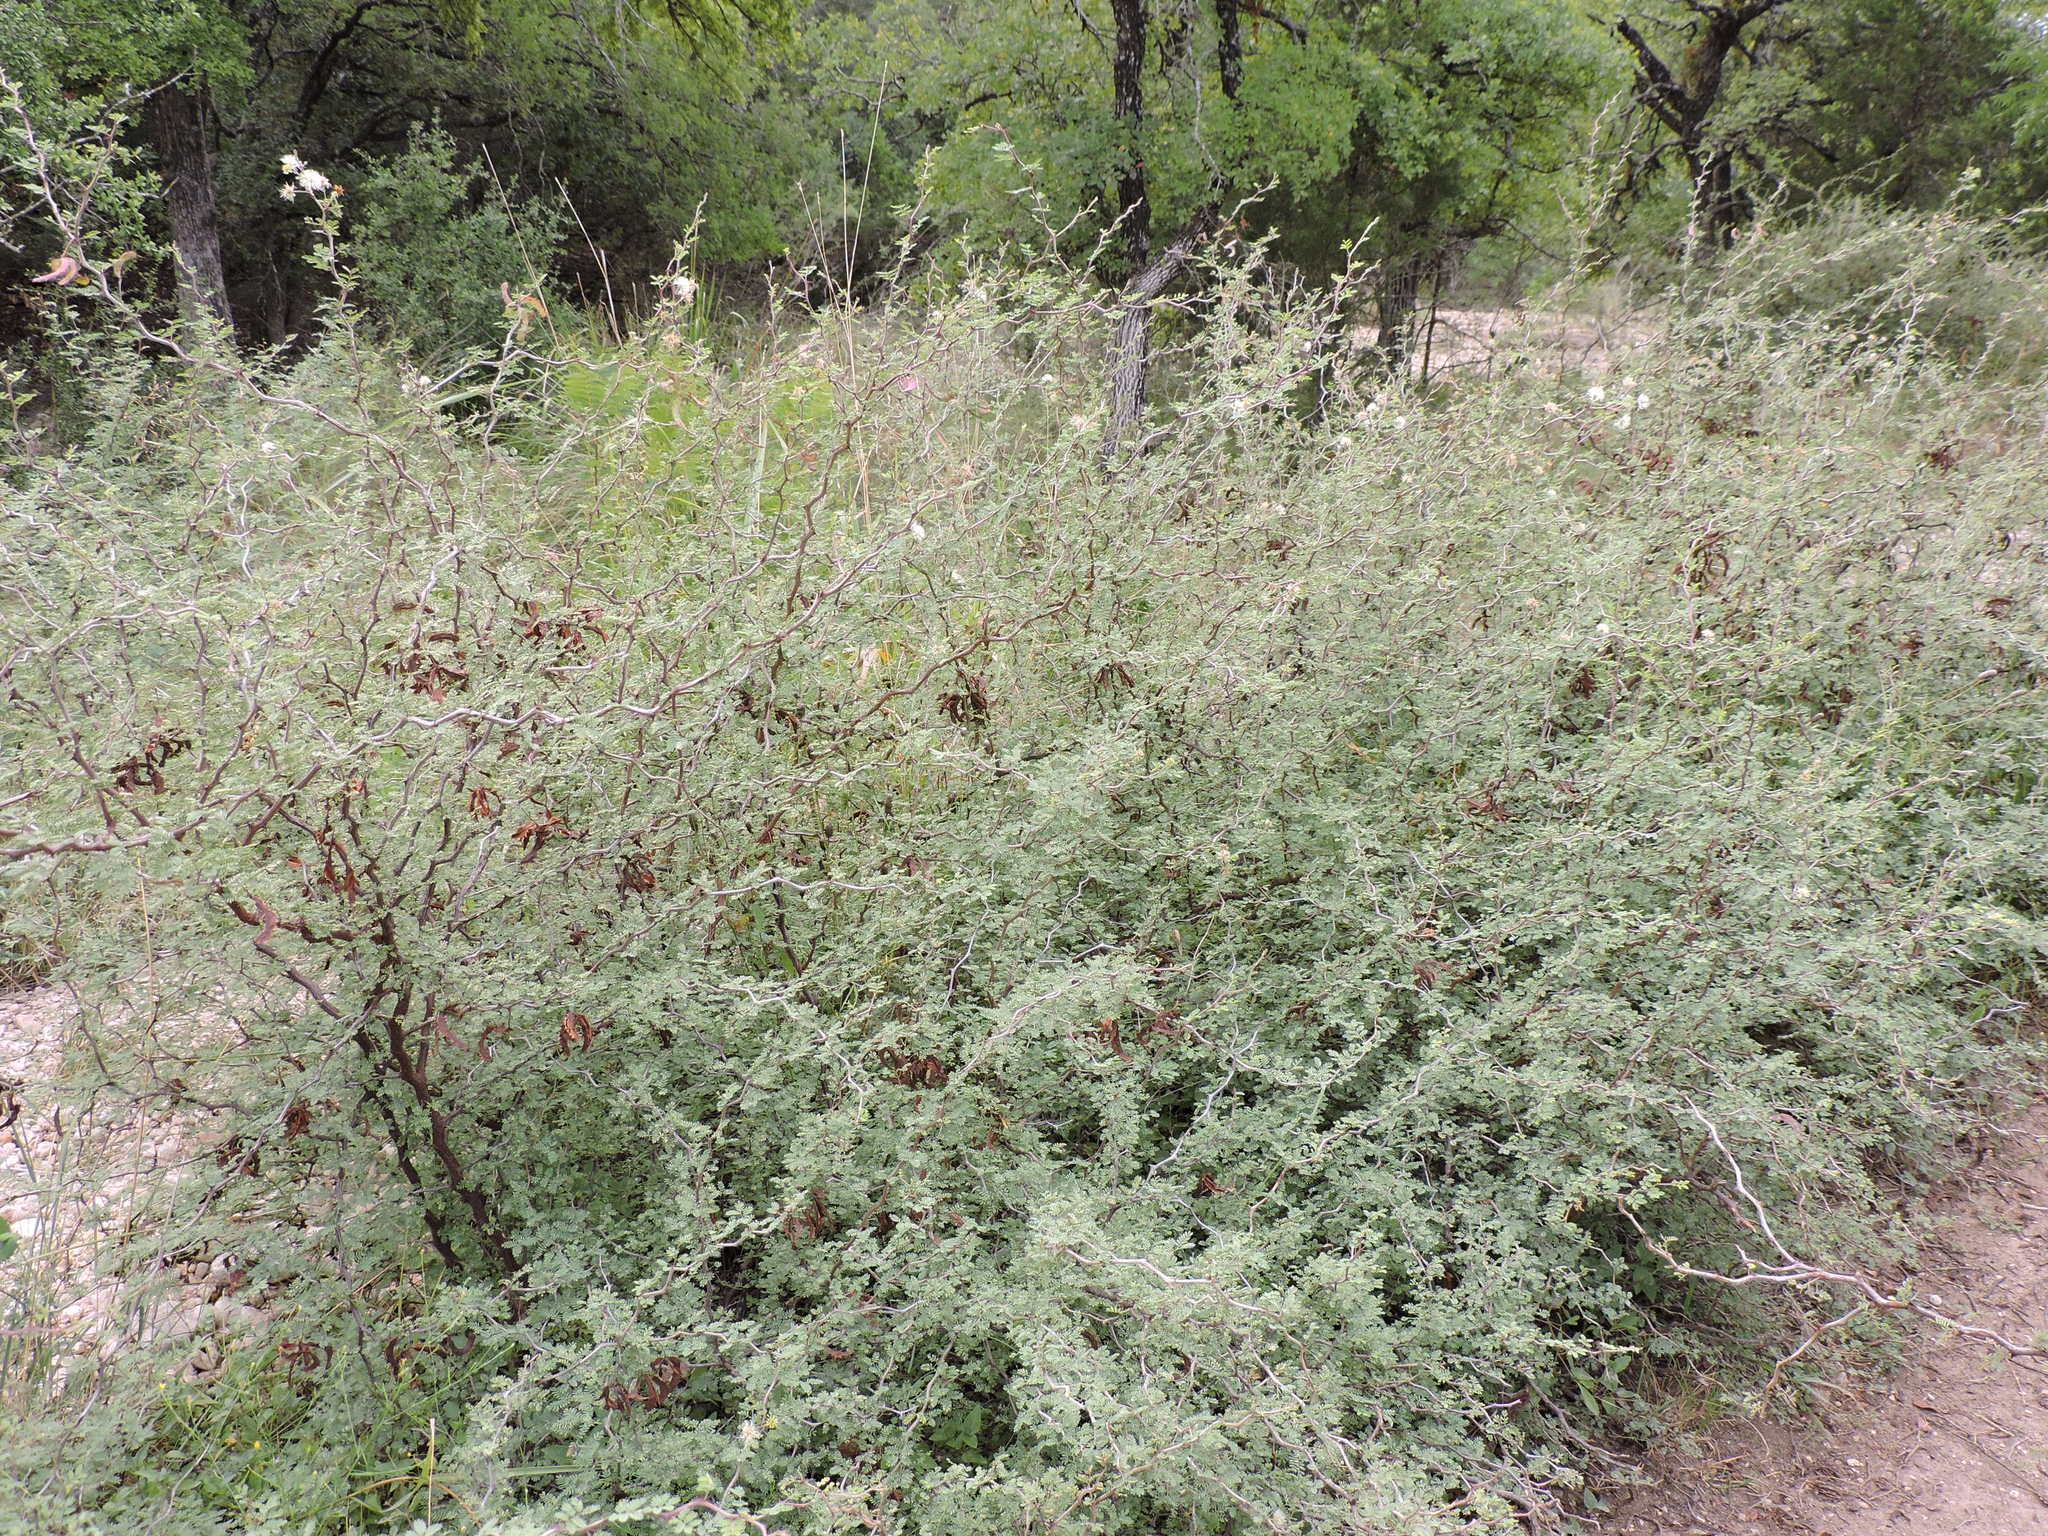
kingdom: Plantae
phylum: Tracheophyta
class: Magnoliopsida
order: Fabales
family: Fabaceae
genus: Mimosa
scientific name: Mimosa texana
